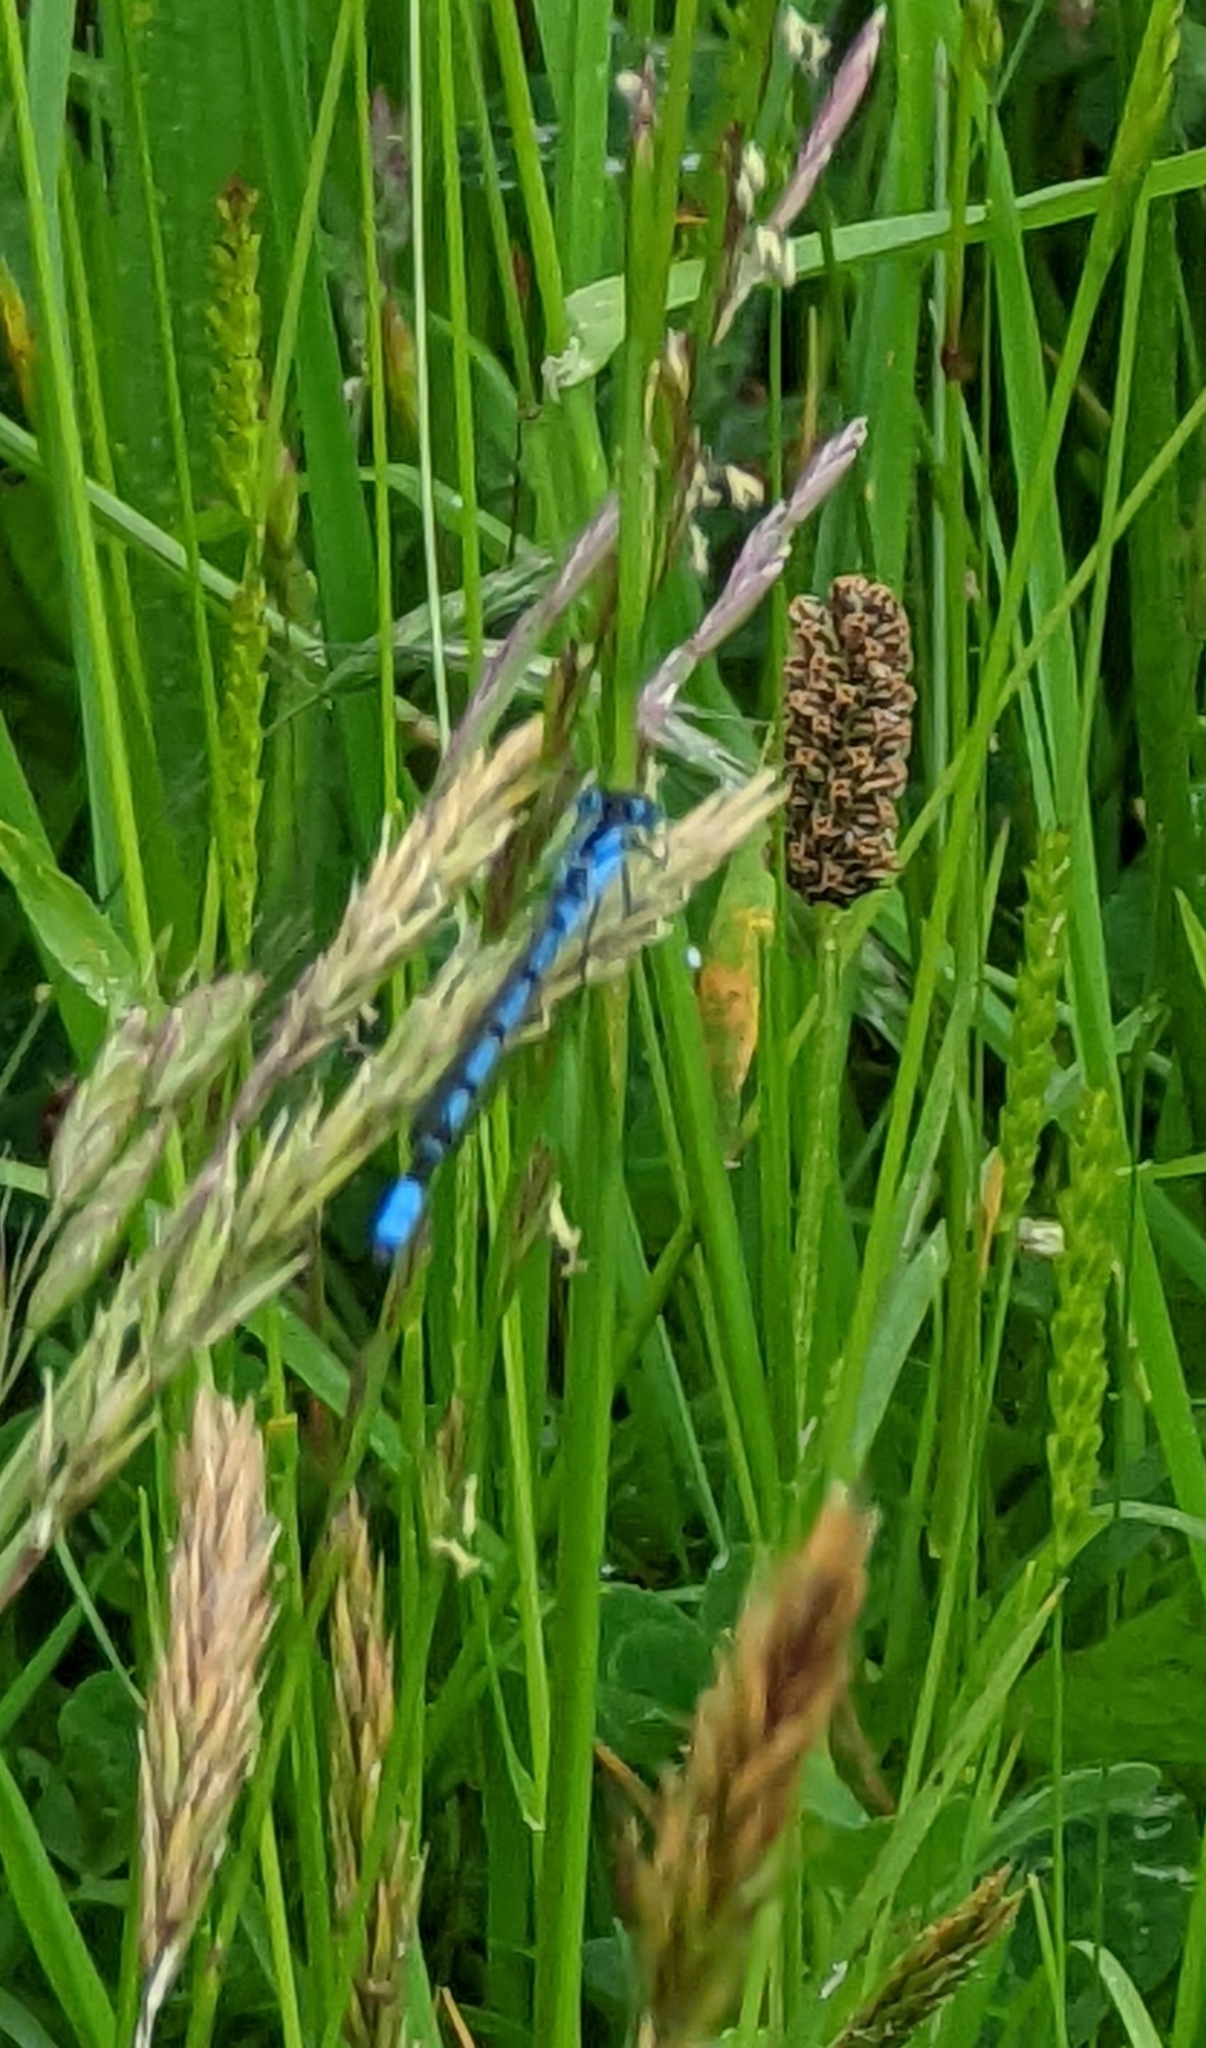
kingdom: Animalia
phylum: Arthropoda
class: Insecta
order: Odonata
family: Coenagrionidae
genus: Enallagma
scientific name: Enallagma cyathigerum
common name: Common blue damselfly
